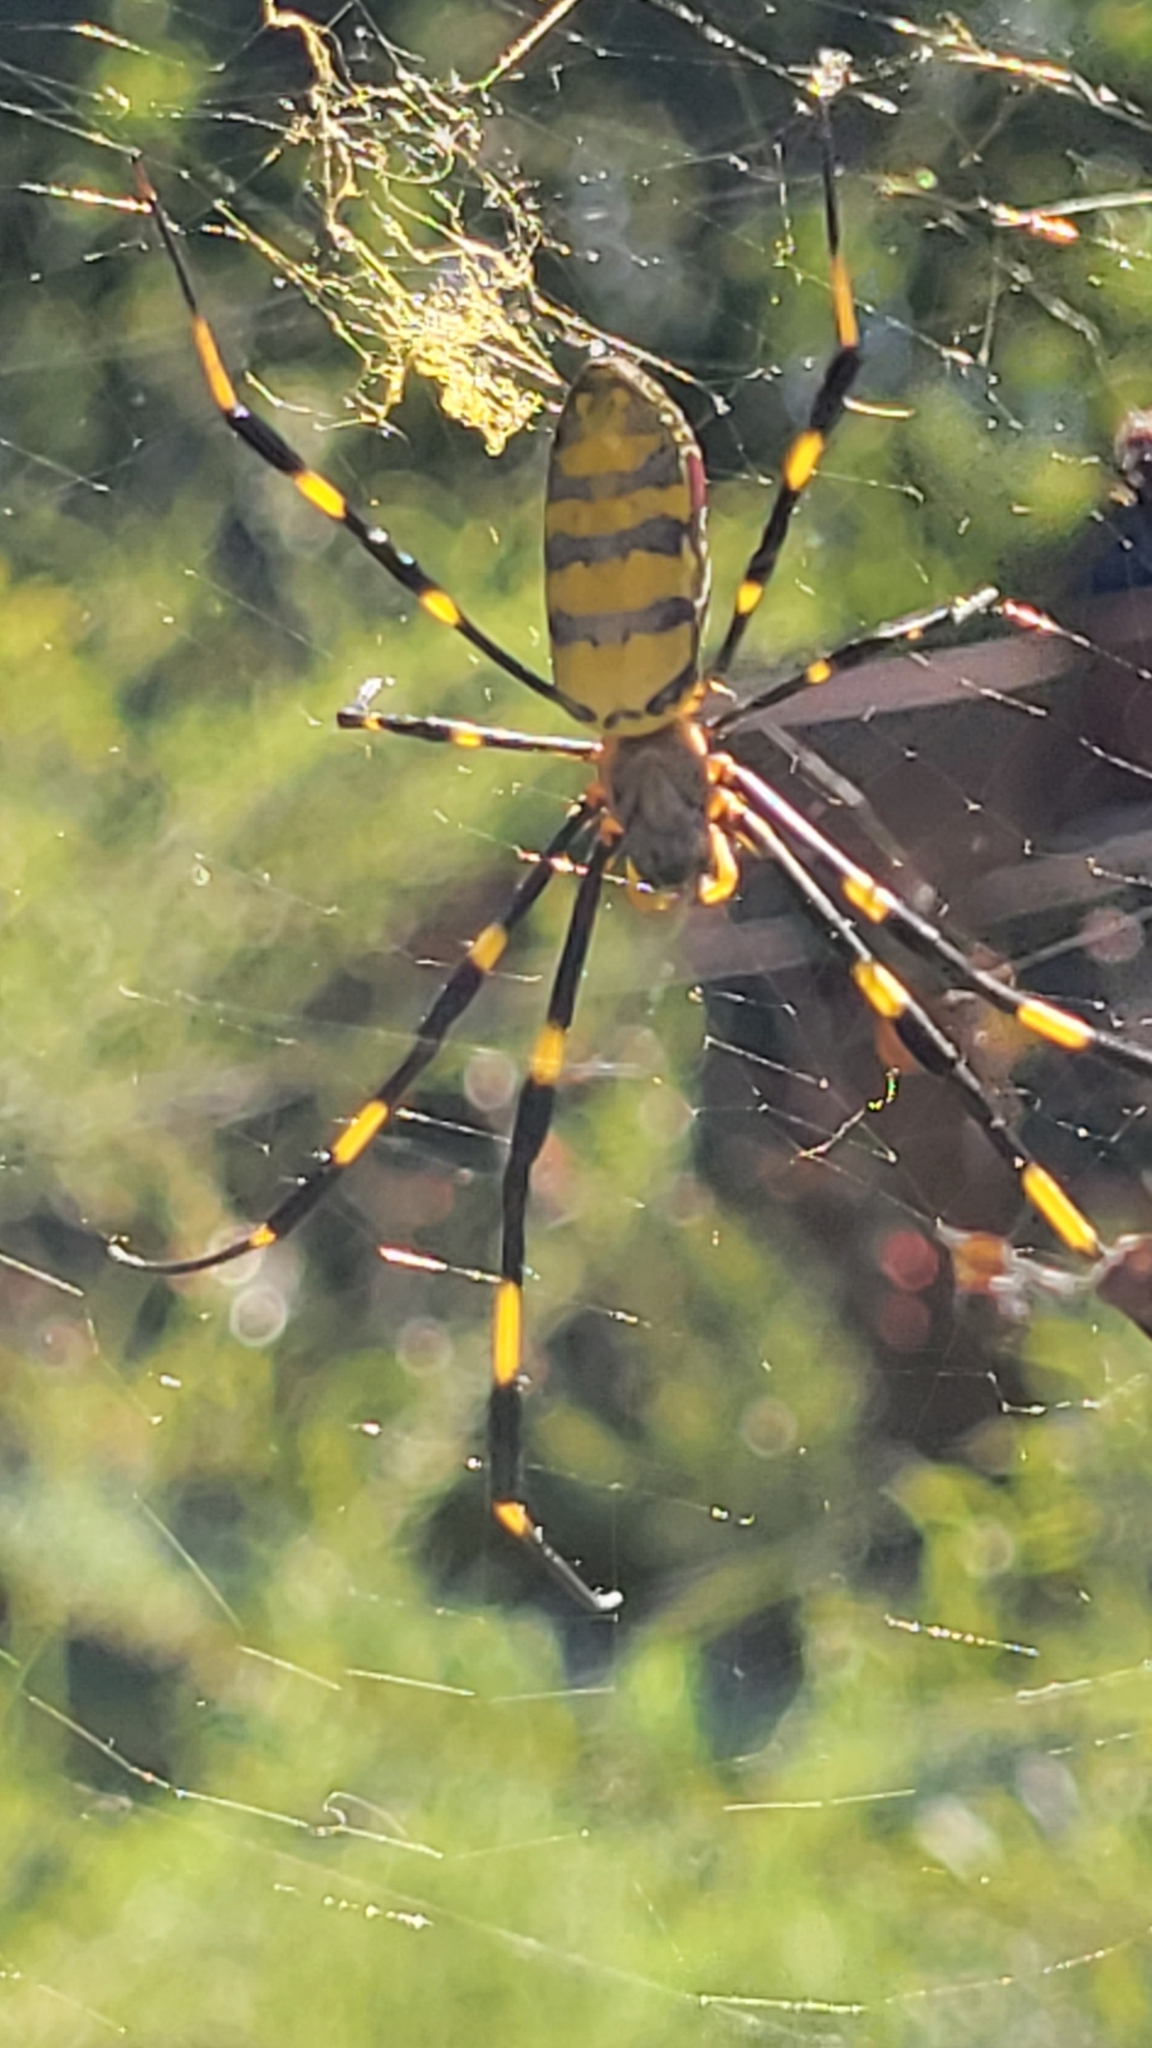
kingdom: Animalia
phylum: Arthropoda
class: Arachnida
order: Araneae
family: Araneidae
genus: Trichonephila
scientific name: Trichonephila clavata
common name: Jorō spider
